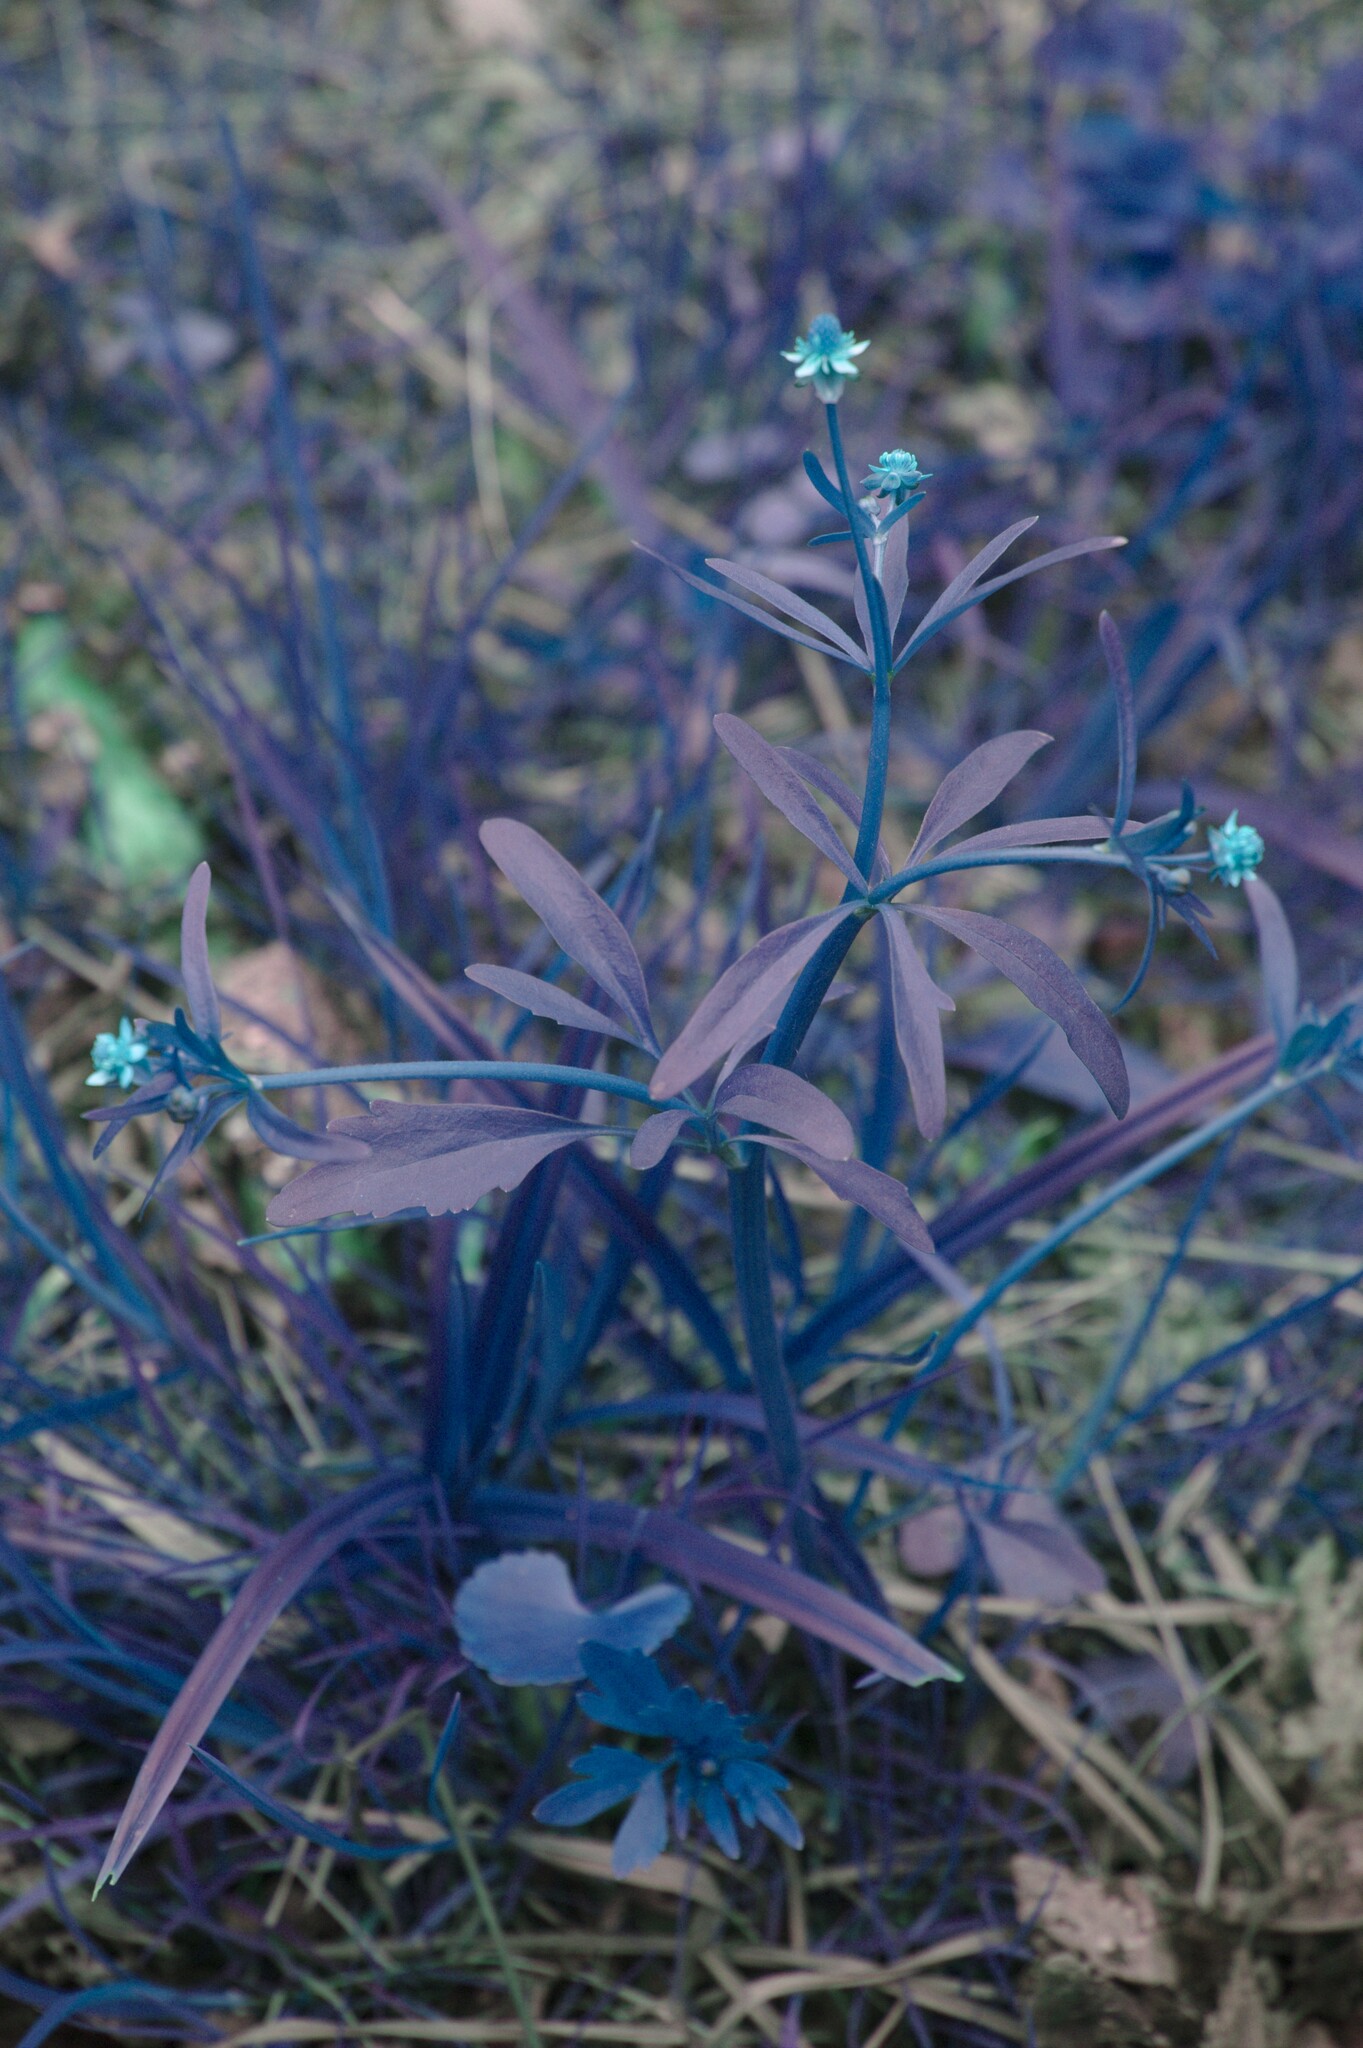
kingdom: Plantae
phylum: Tracheophyta
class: Magnoliopsida
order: Ranunculales
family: Ranunculaceae
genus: Ranunculus
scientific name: Ranunculus abortivus
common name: Early wood buttercup
